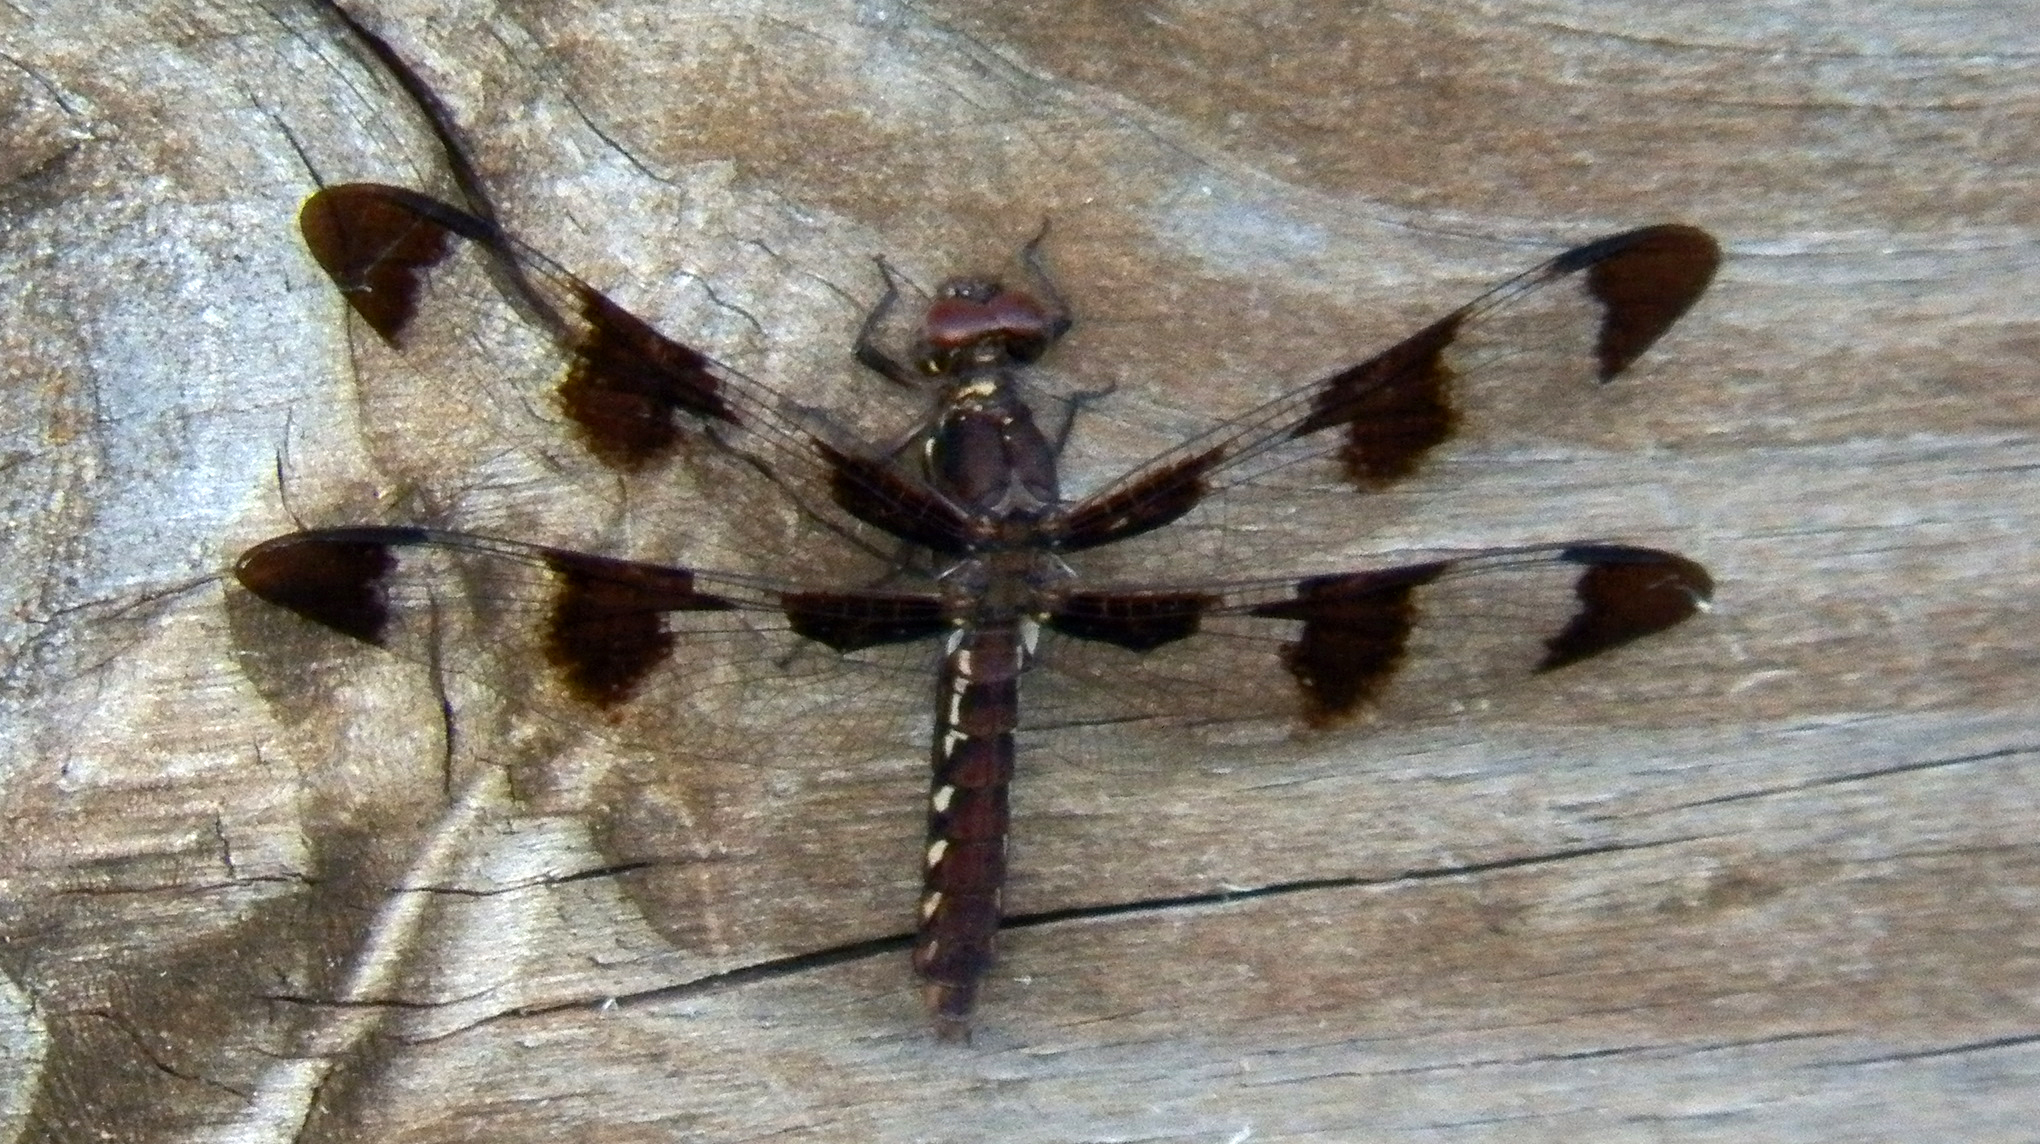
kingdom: Animalia
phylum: Arthropoda
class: Insecta
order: Odonata
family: Libellulidae
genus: Plathemis
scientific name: Plathemis lydia
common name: Common whitetail
